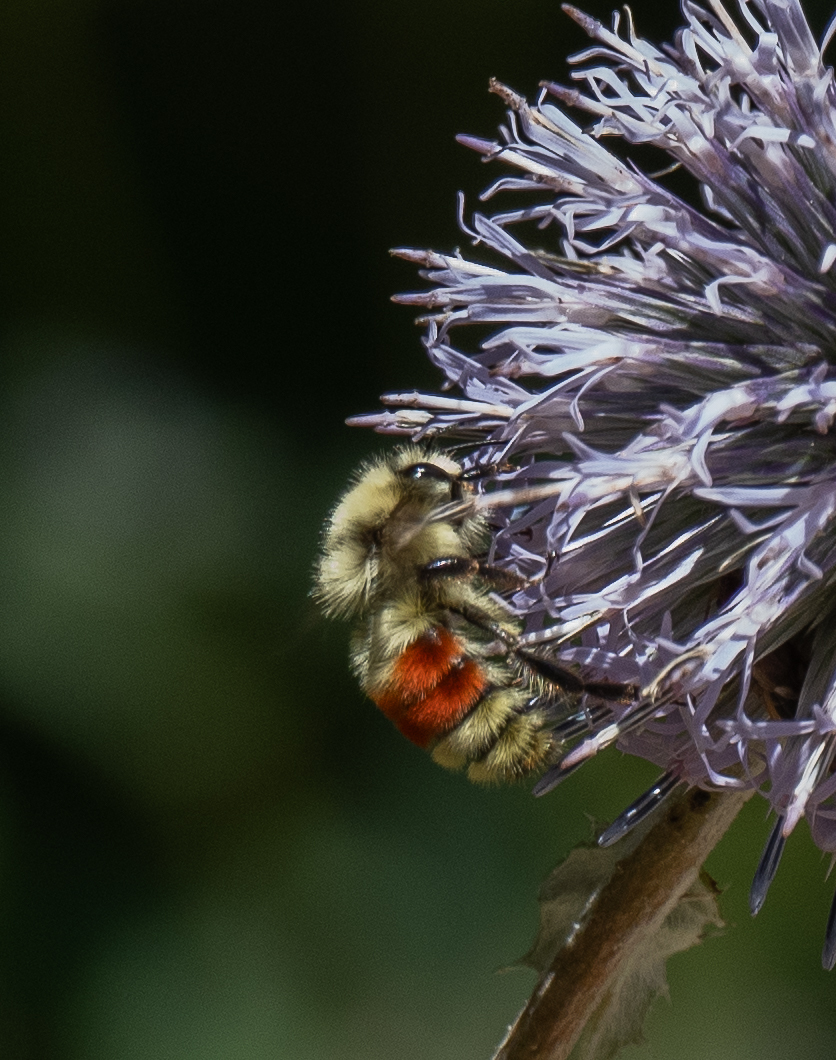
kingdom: Animalia
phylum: Arthropoda
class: Insecta
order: Hymenoptera
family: Apidae
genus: Bombus
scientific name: Bombus huntii
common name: Hunt bumble bee
